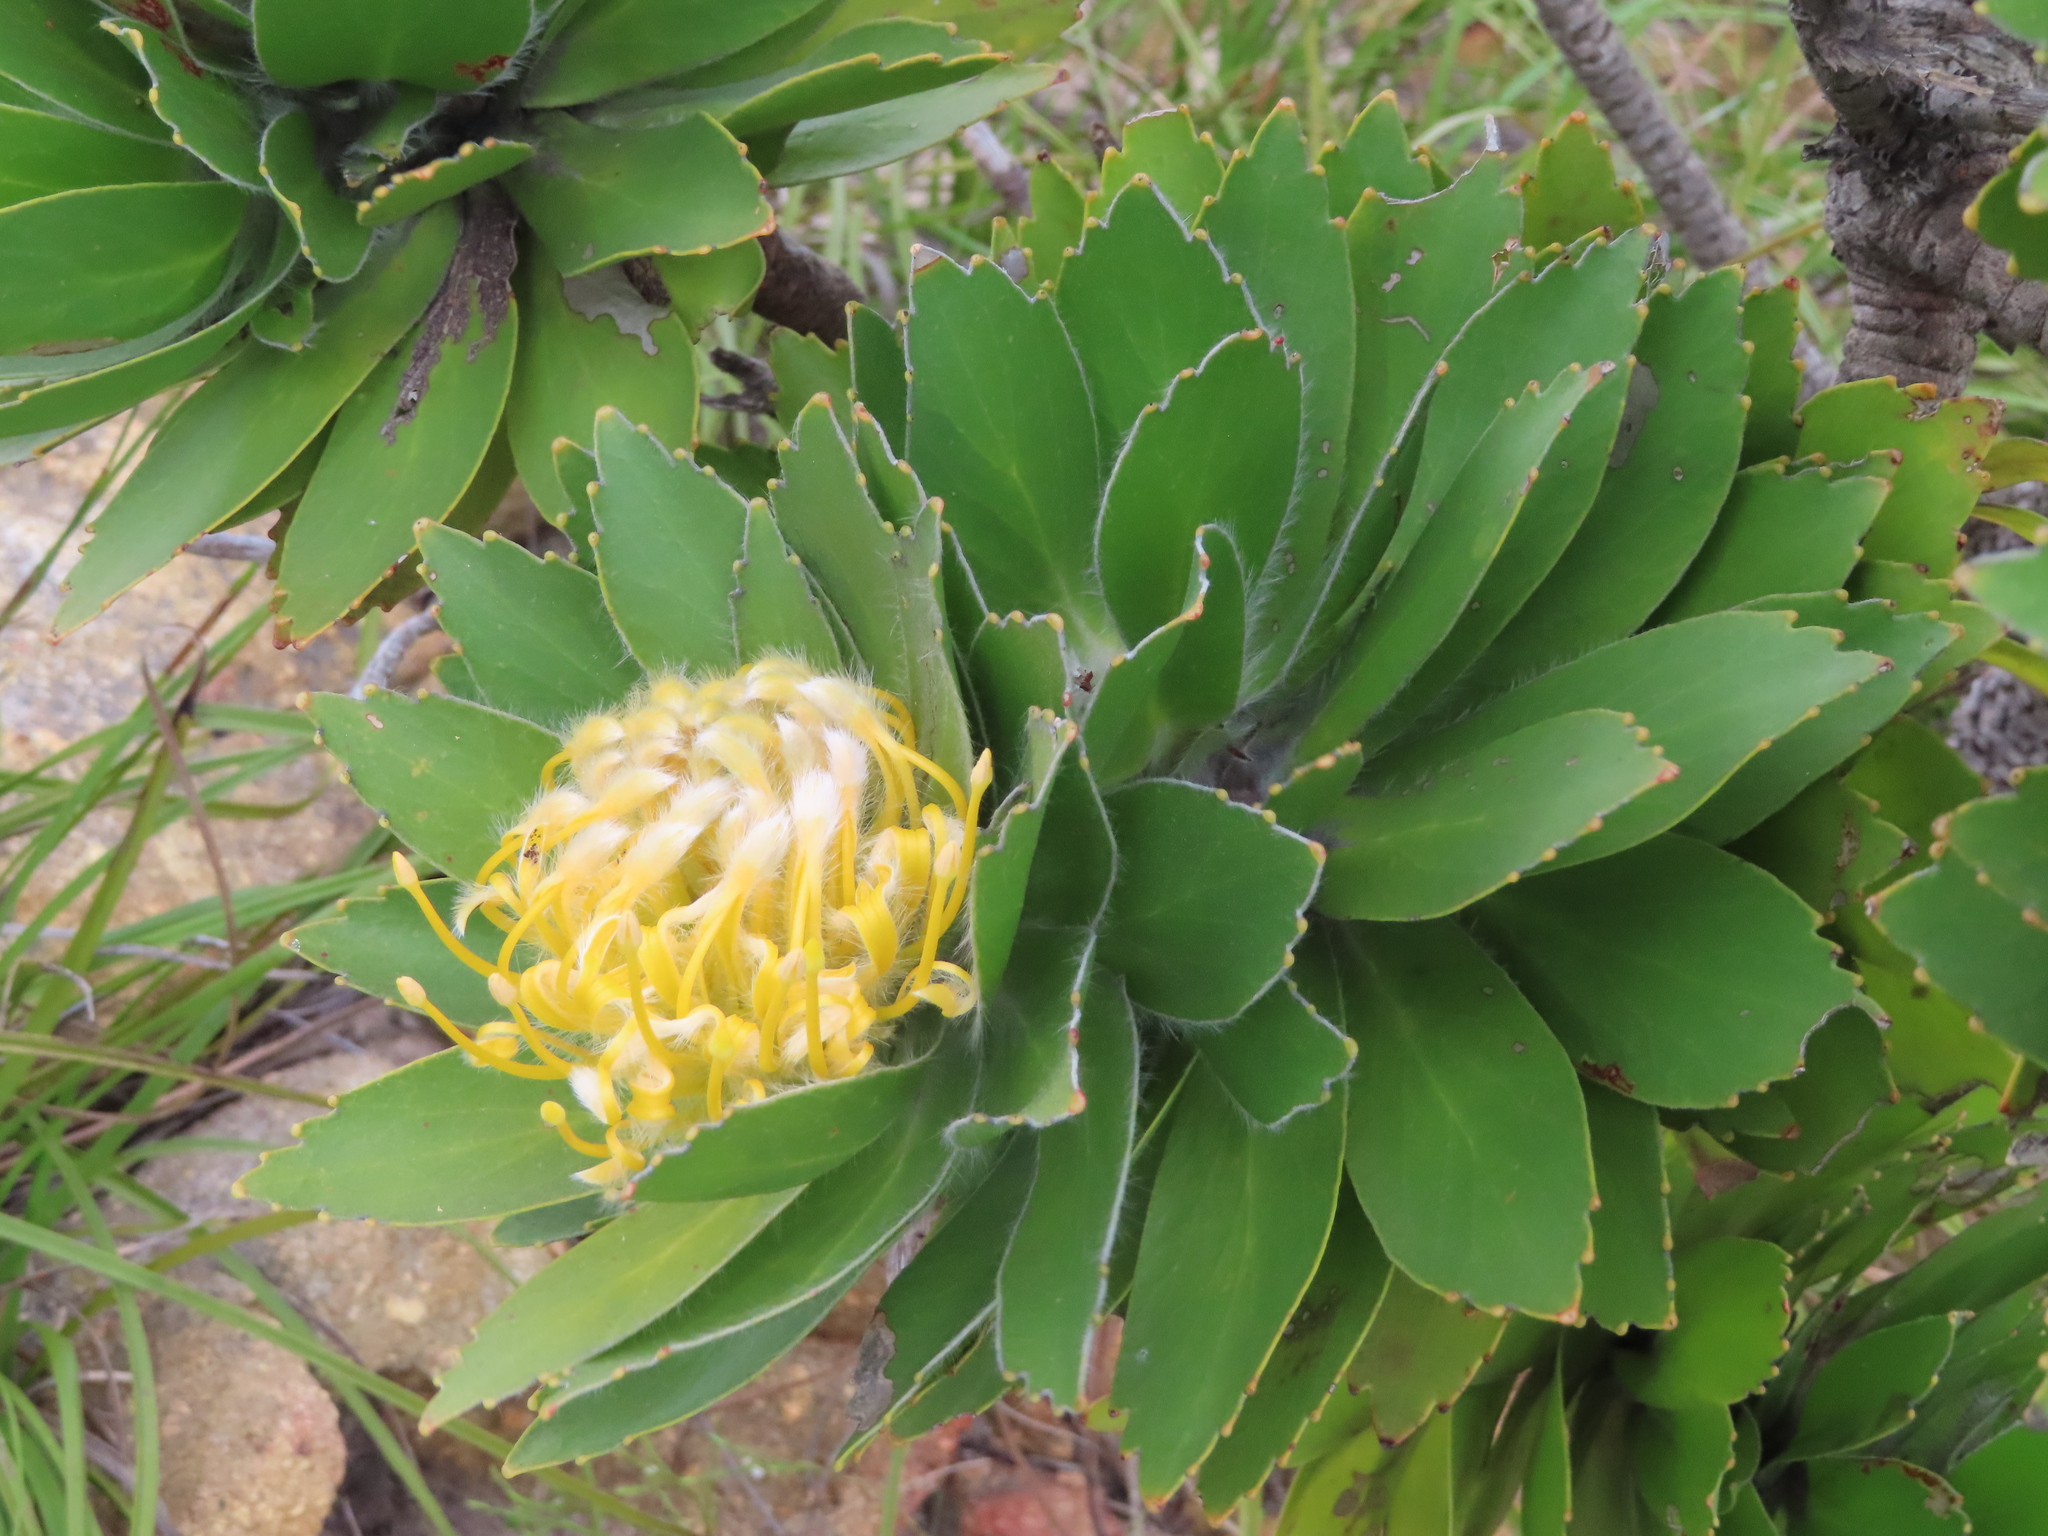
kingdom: Plantae
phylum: Tracheophyta
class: Magnoliopsida
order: Proteales
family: Proteaceae
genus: Leucospermum
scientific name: Leucospermum conocarpodendron
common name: Tree pincushion
